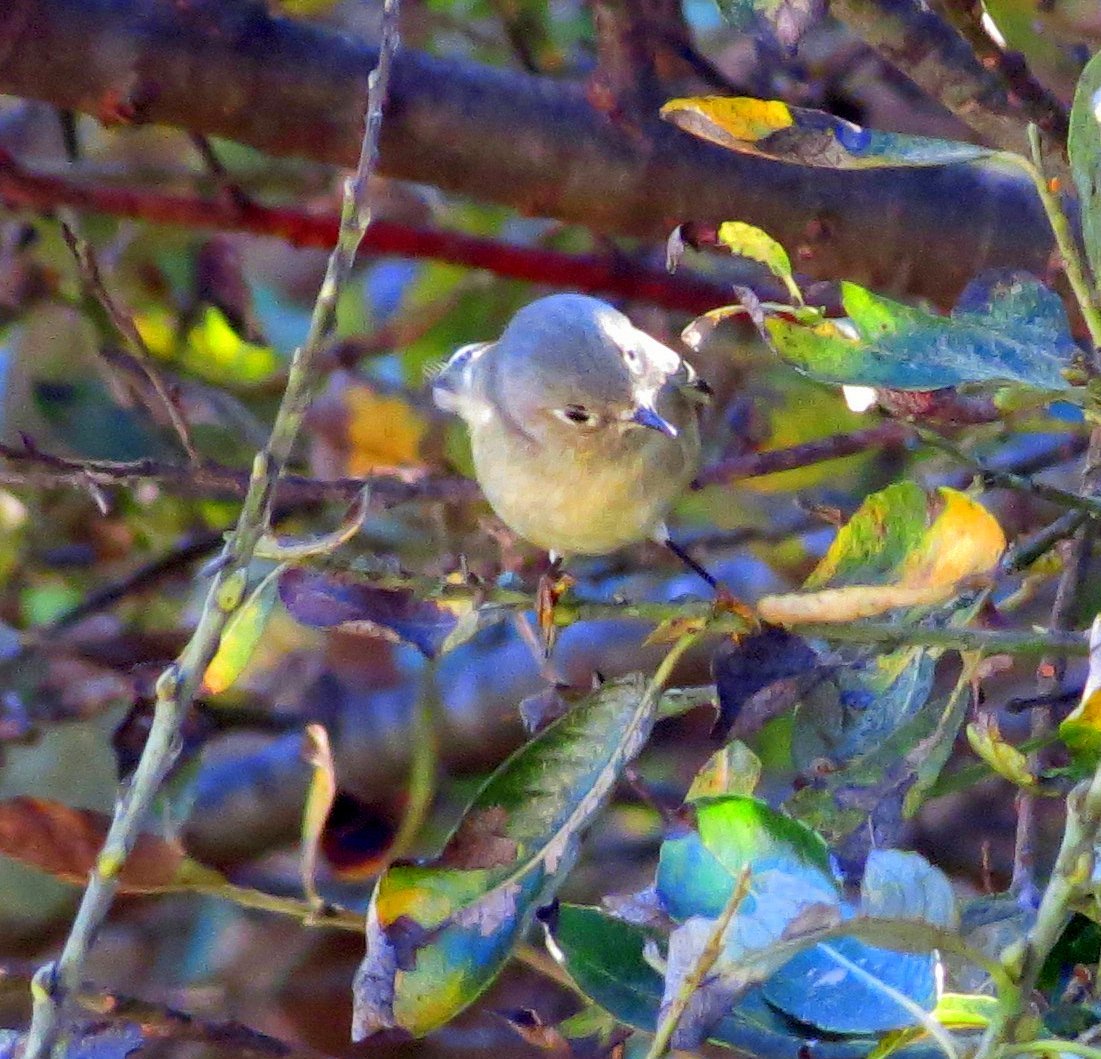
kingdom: Animalia
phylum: Chordata
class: Aves
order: Passeriformes
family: Regulidae
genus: Regulus
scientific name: Regulus calendula
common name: Ruby-crowned kinglet
